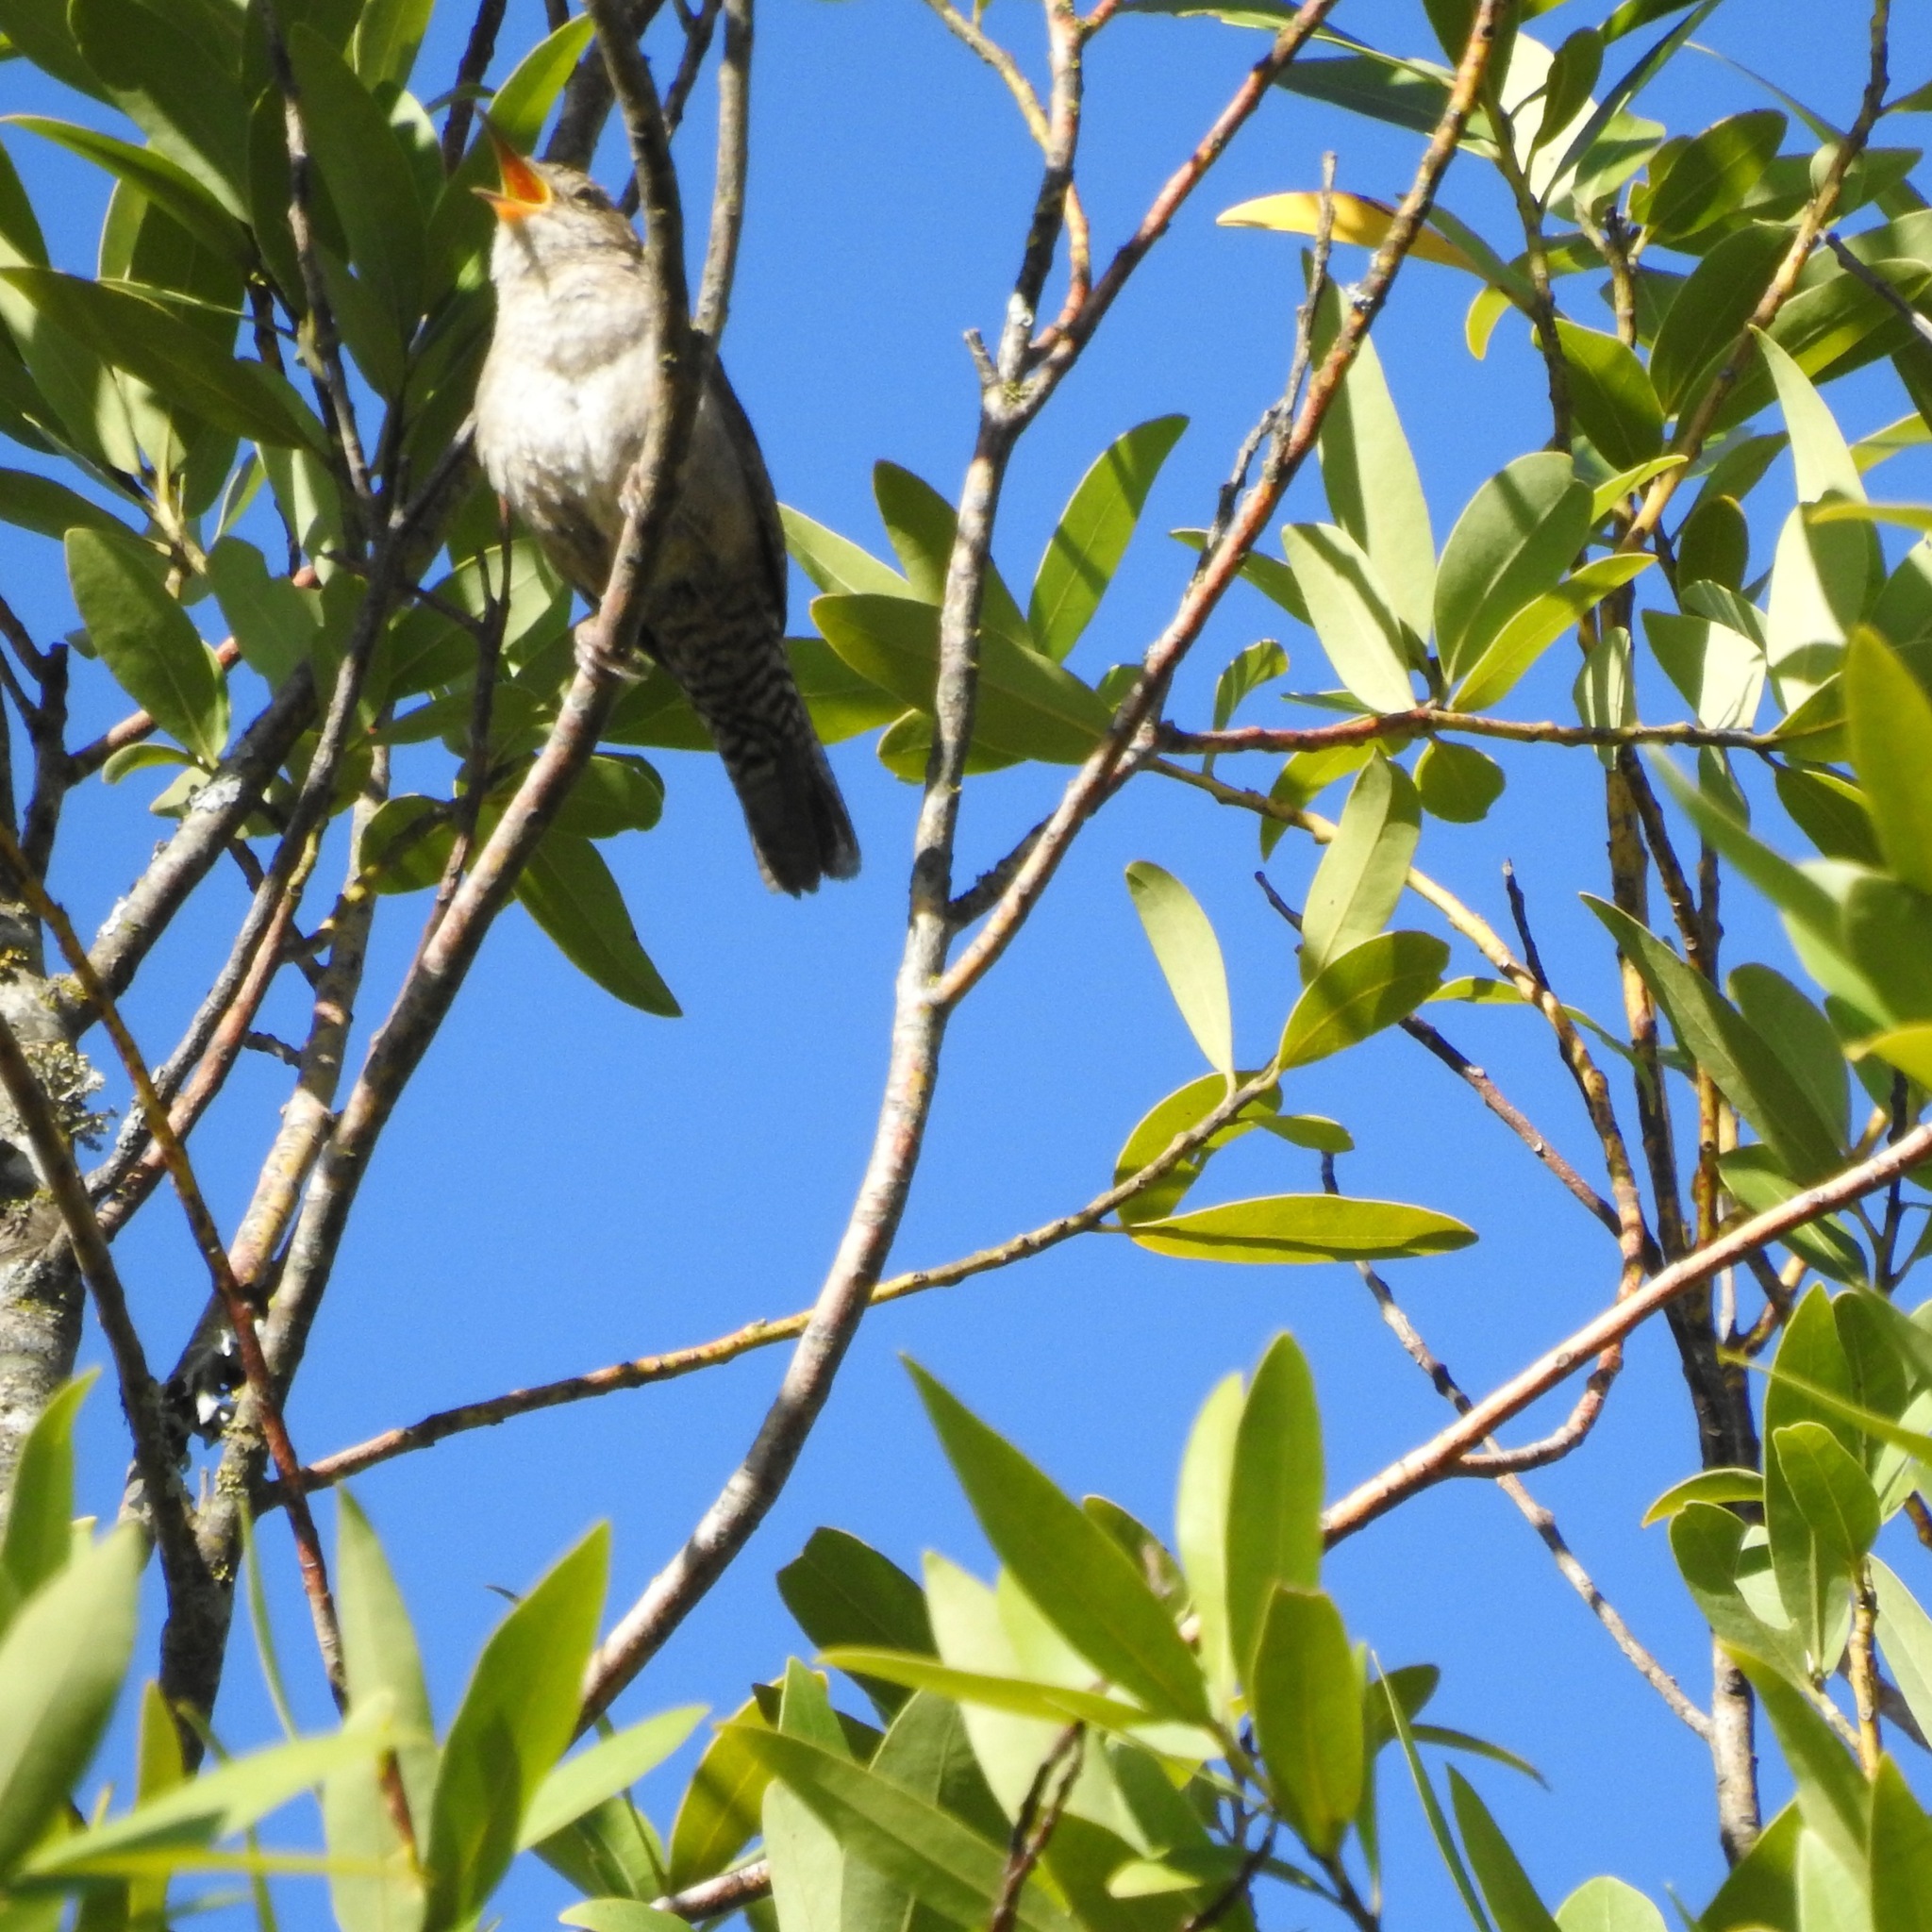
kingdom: Animalia
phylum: Chordata
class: Aves
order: Passeriformes
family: Troglodytidae
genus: Troglodytes
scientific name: Troglodytes aedon
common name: House wren
